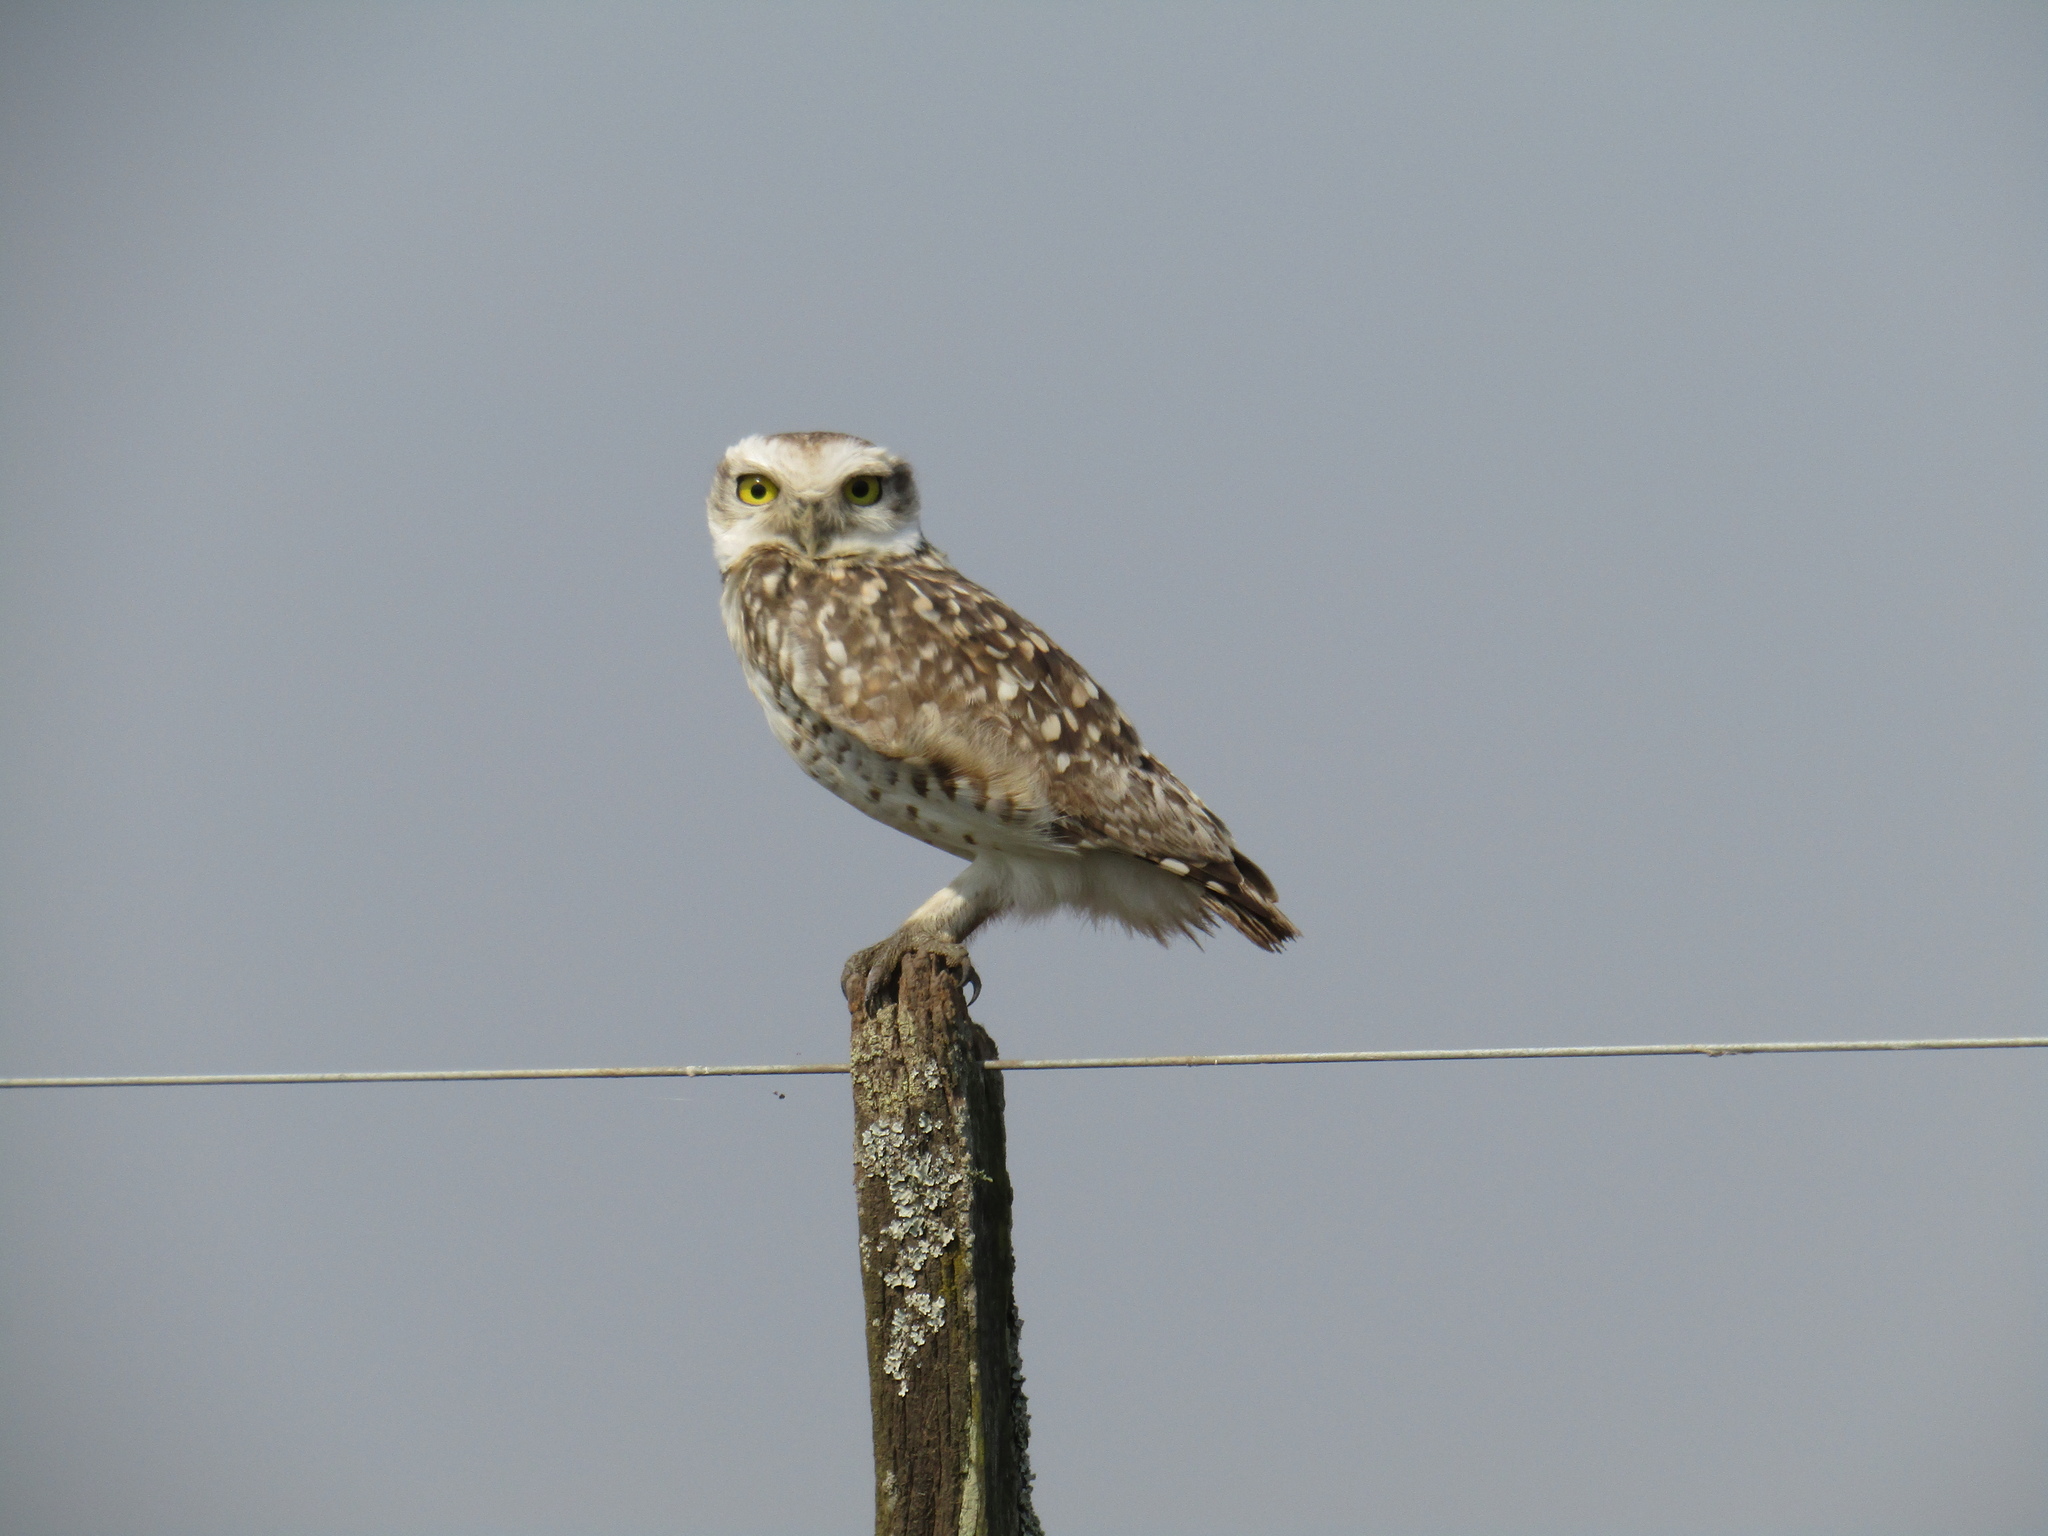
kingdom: Animalia
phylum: Chordata
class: Aves
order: Strigiformes
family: Strigidae
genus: Athene
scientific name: Athene cunicularia
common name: Burrowing owl
